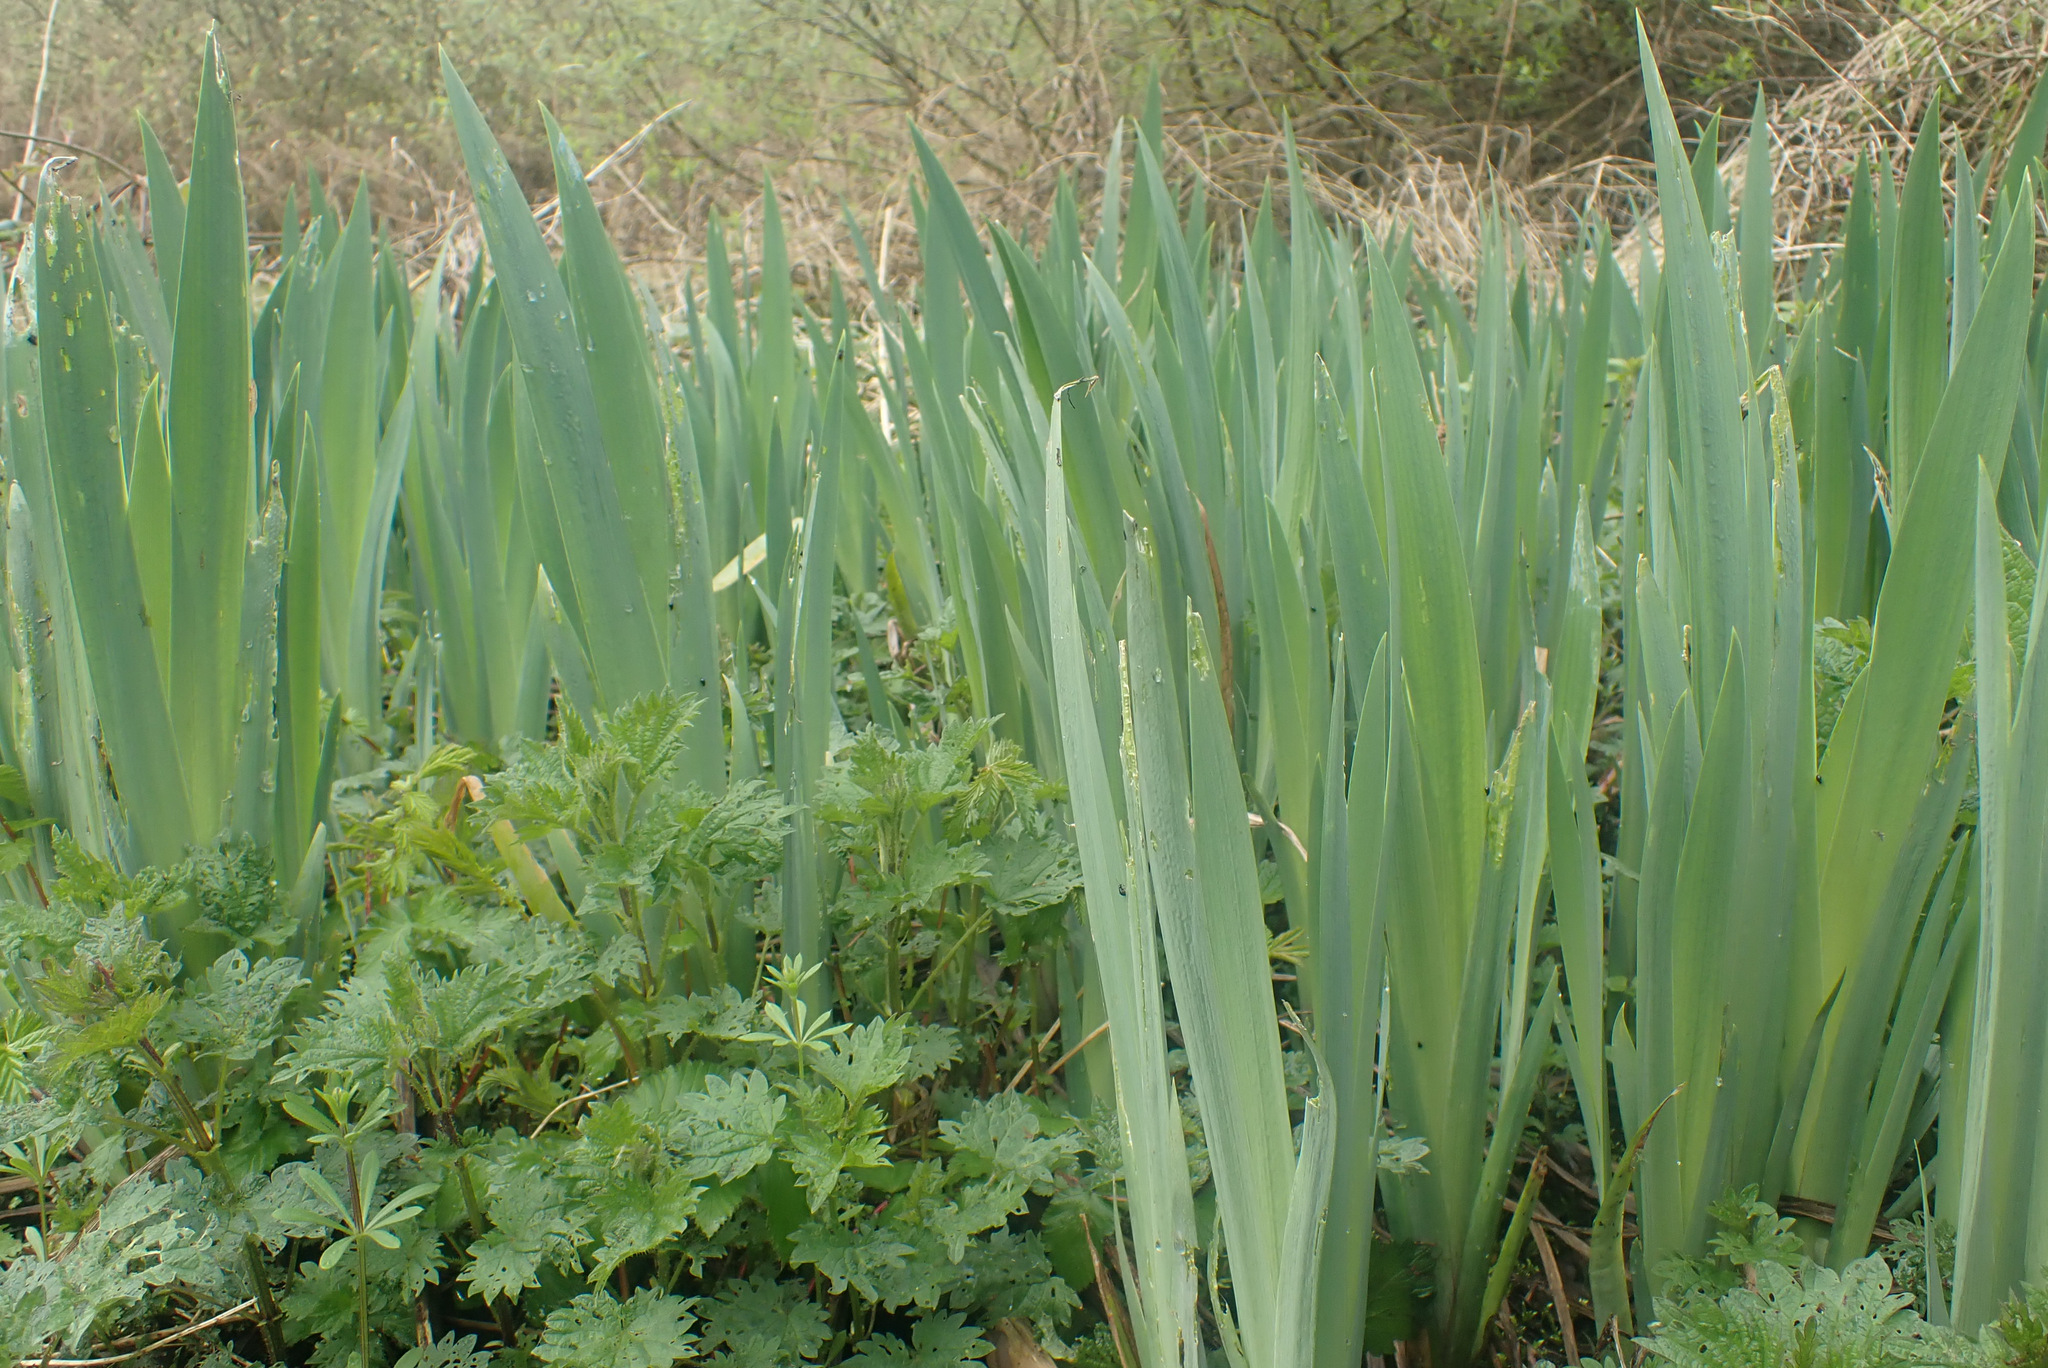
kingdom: Plantae
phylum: Tracheophyta
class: Liliopsida
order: Asparagales
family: Iridaceae
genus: Iris
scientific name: Iris pseudacorus
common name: Yellow flag
